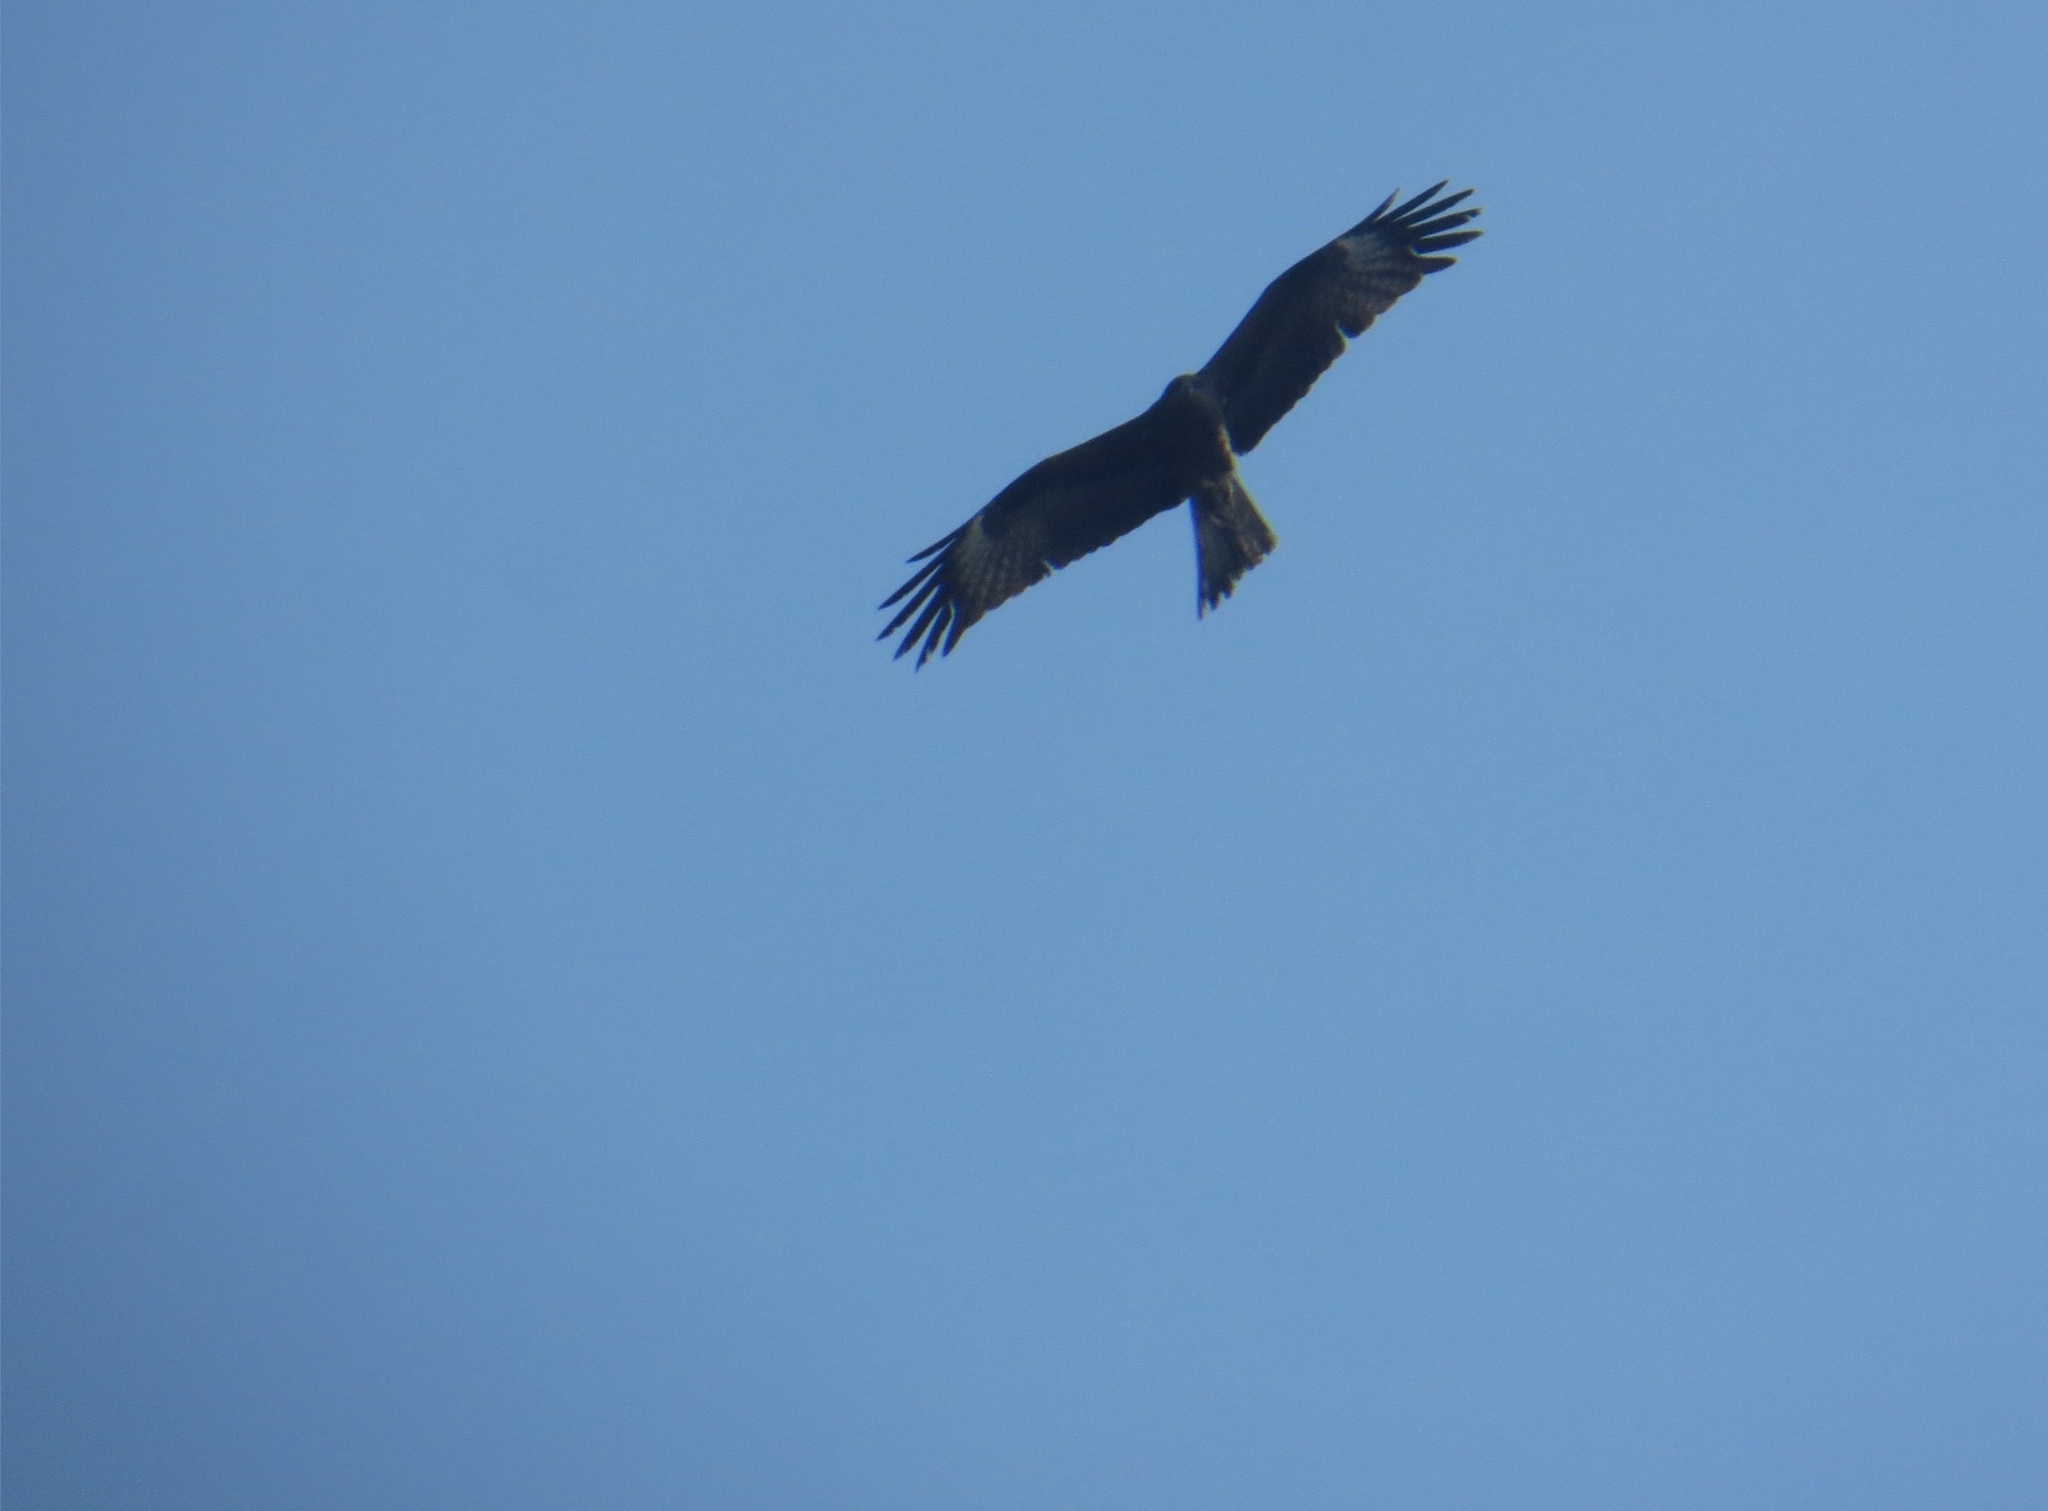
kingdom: Animalia
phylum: Chordata
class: Aves
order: Accipitriformes
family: Accipitridae
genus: Milvus
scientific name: Milvus migrans
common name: Black kite
